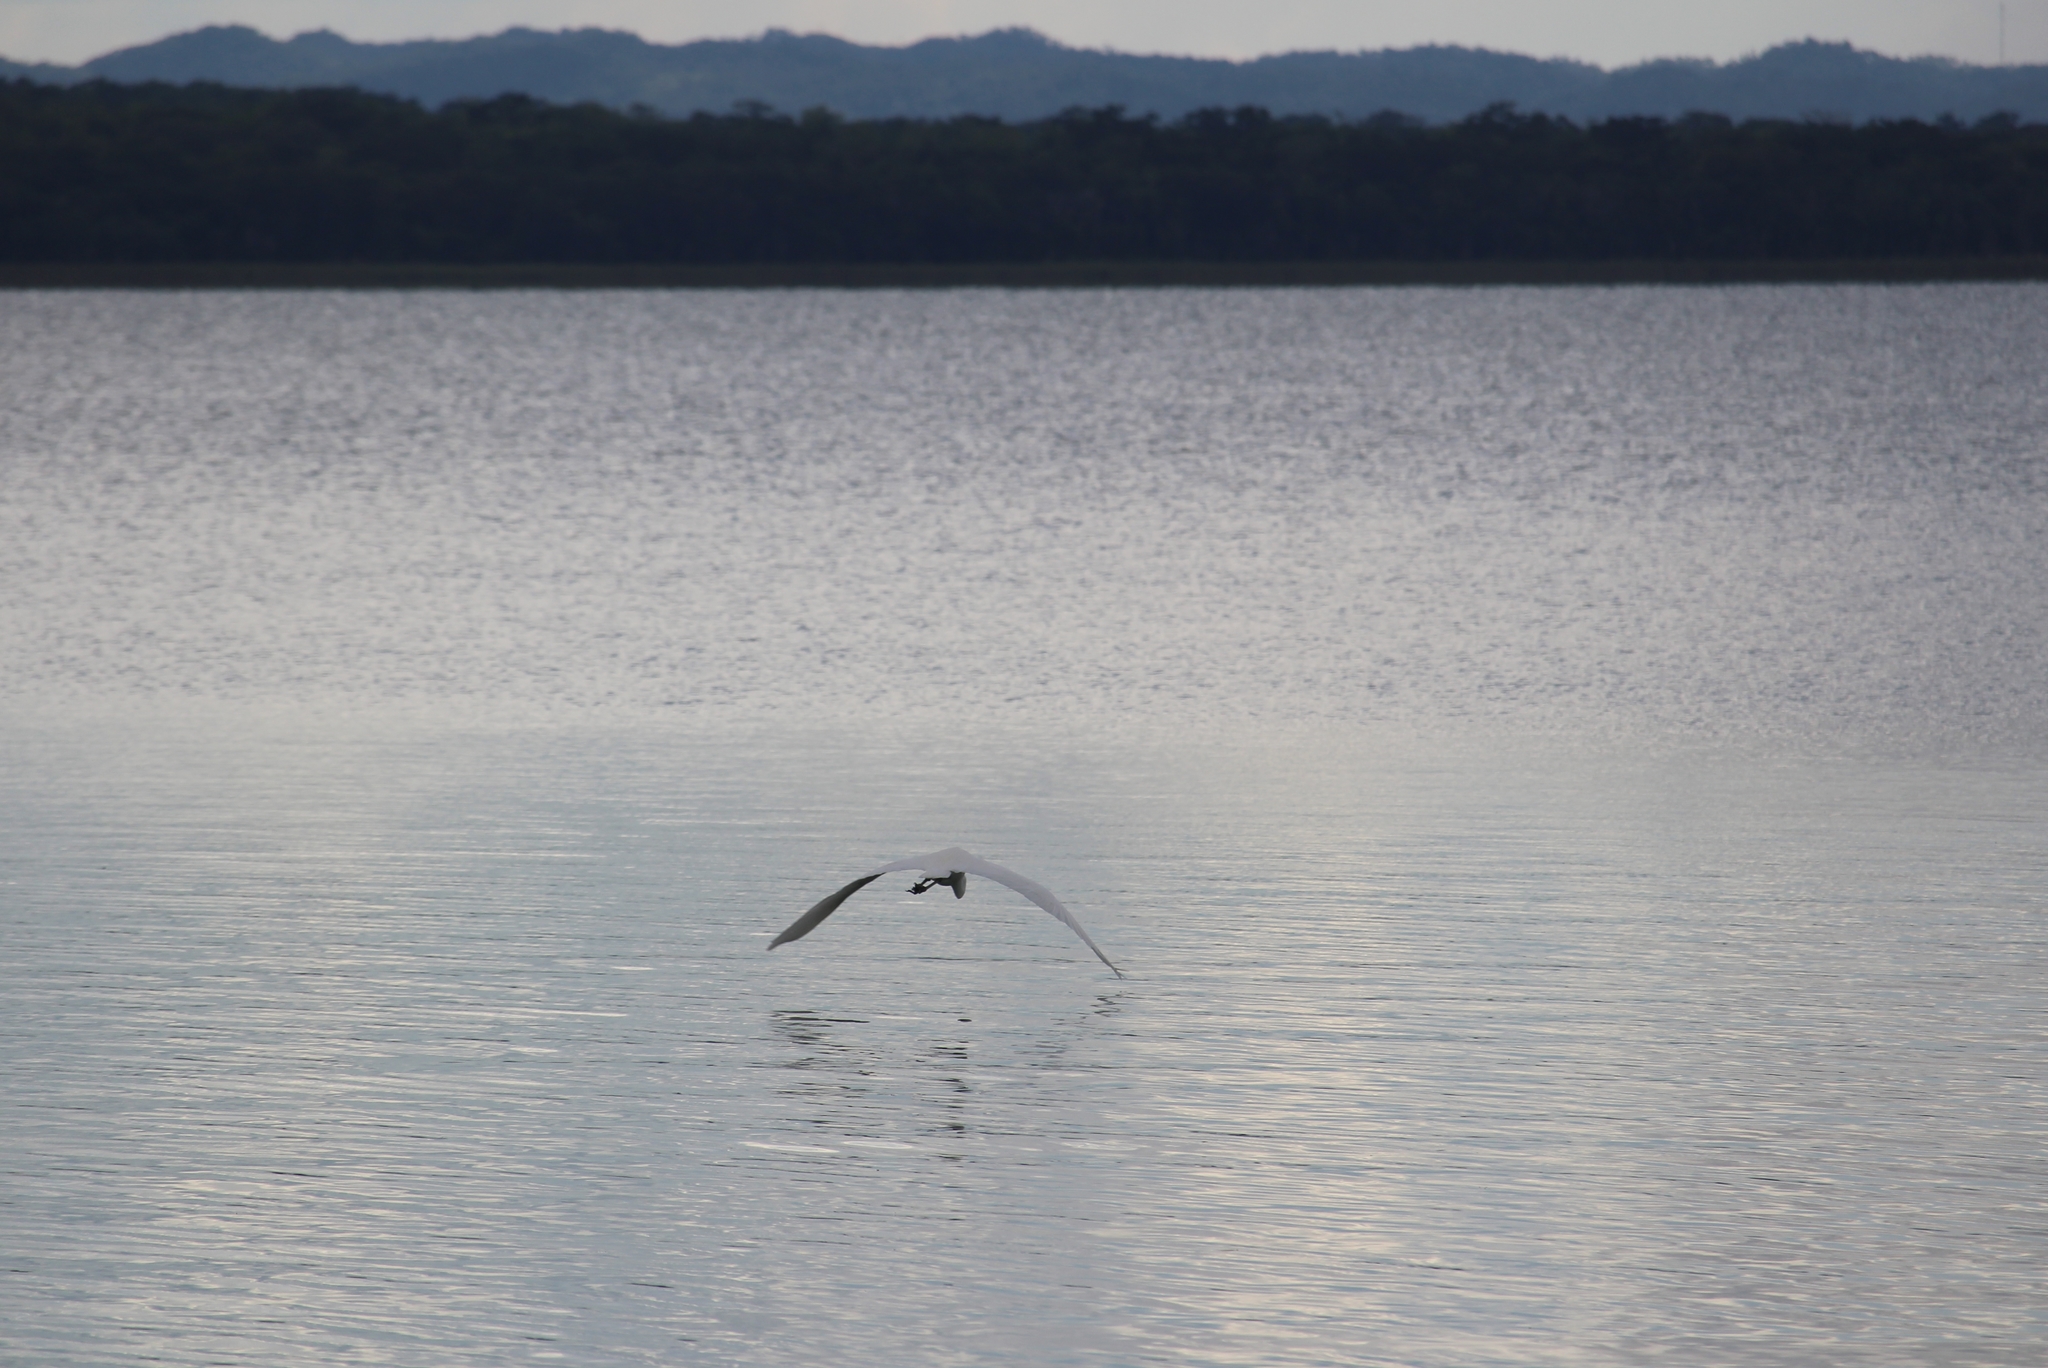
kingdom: Animalia
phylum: Chordata
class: Aves
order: Pelecaniformes
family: Ardeidae
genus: Ardea
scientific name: Ardea alba
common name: Great egret
